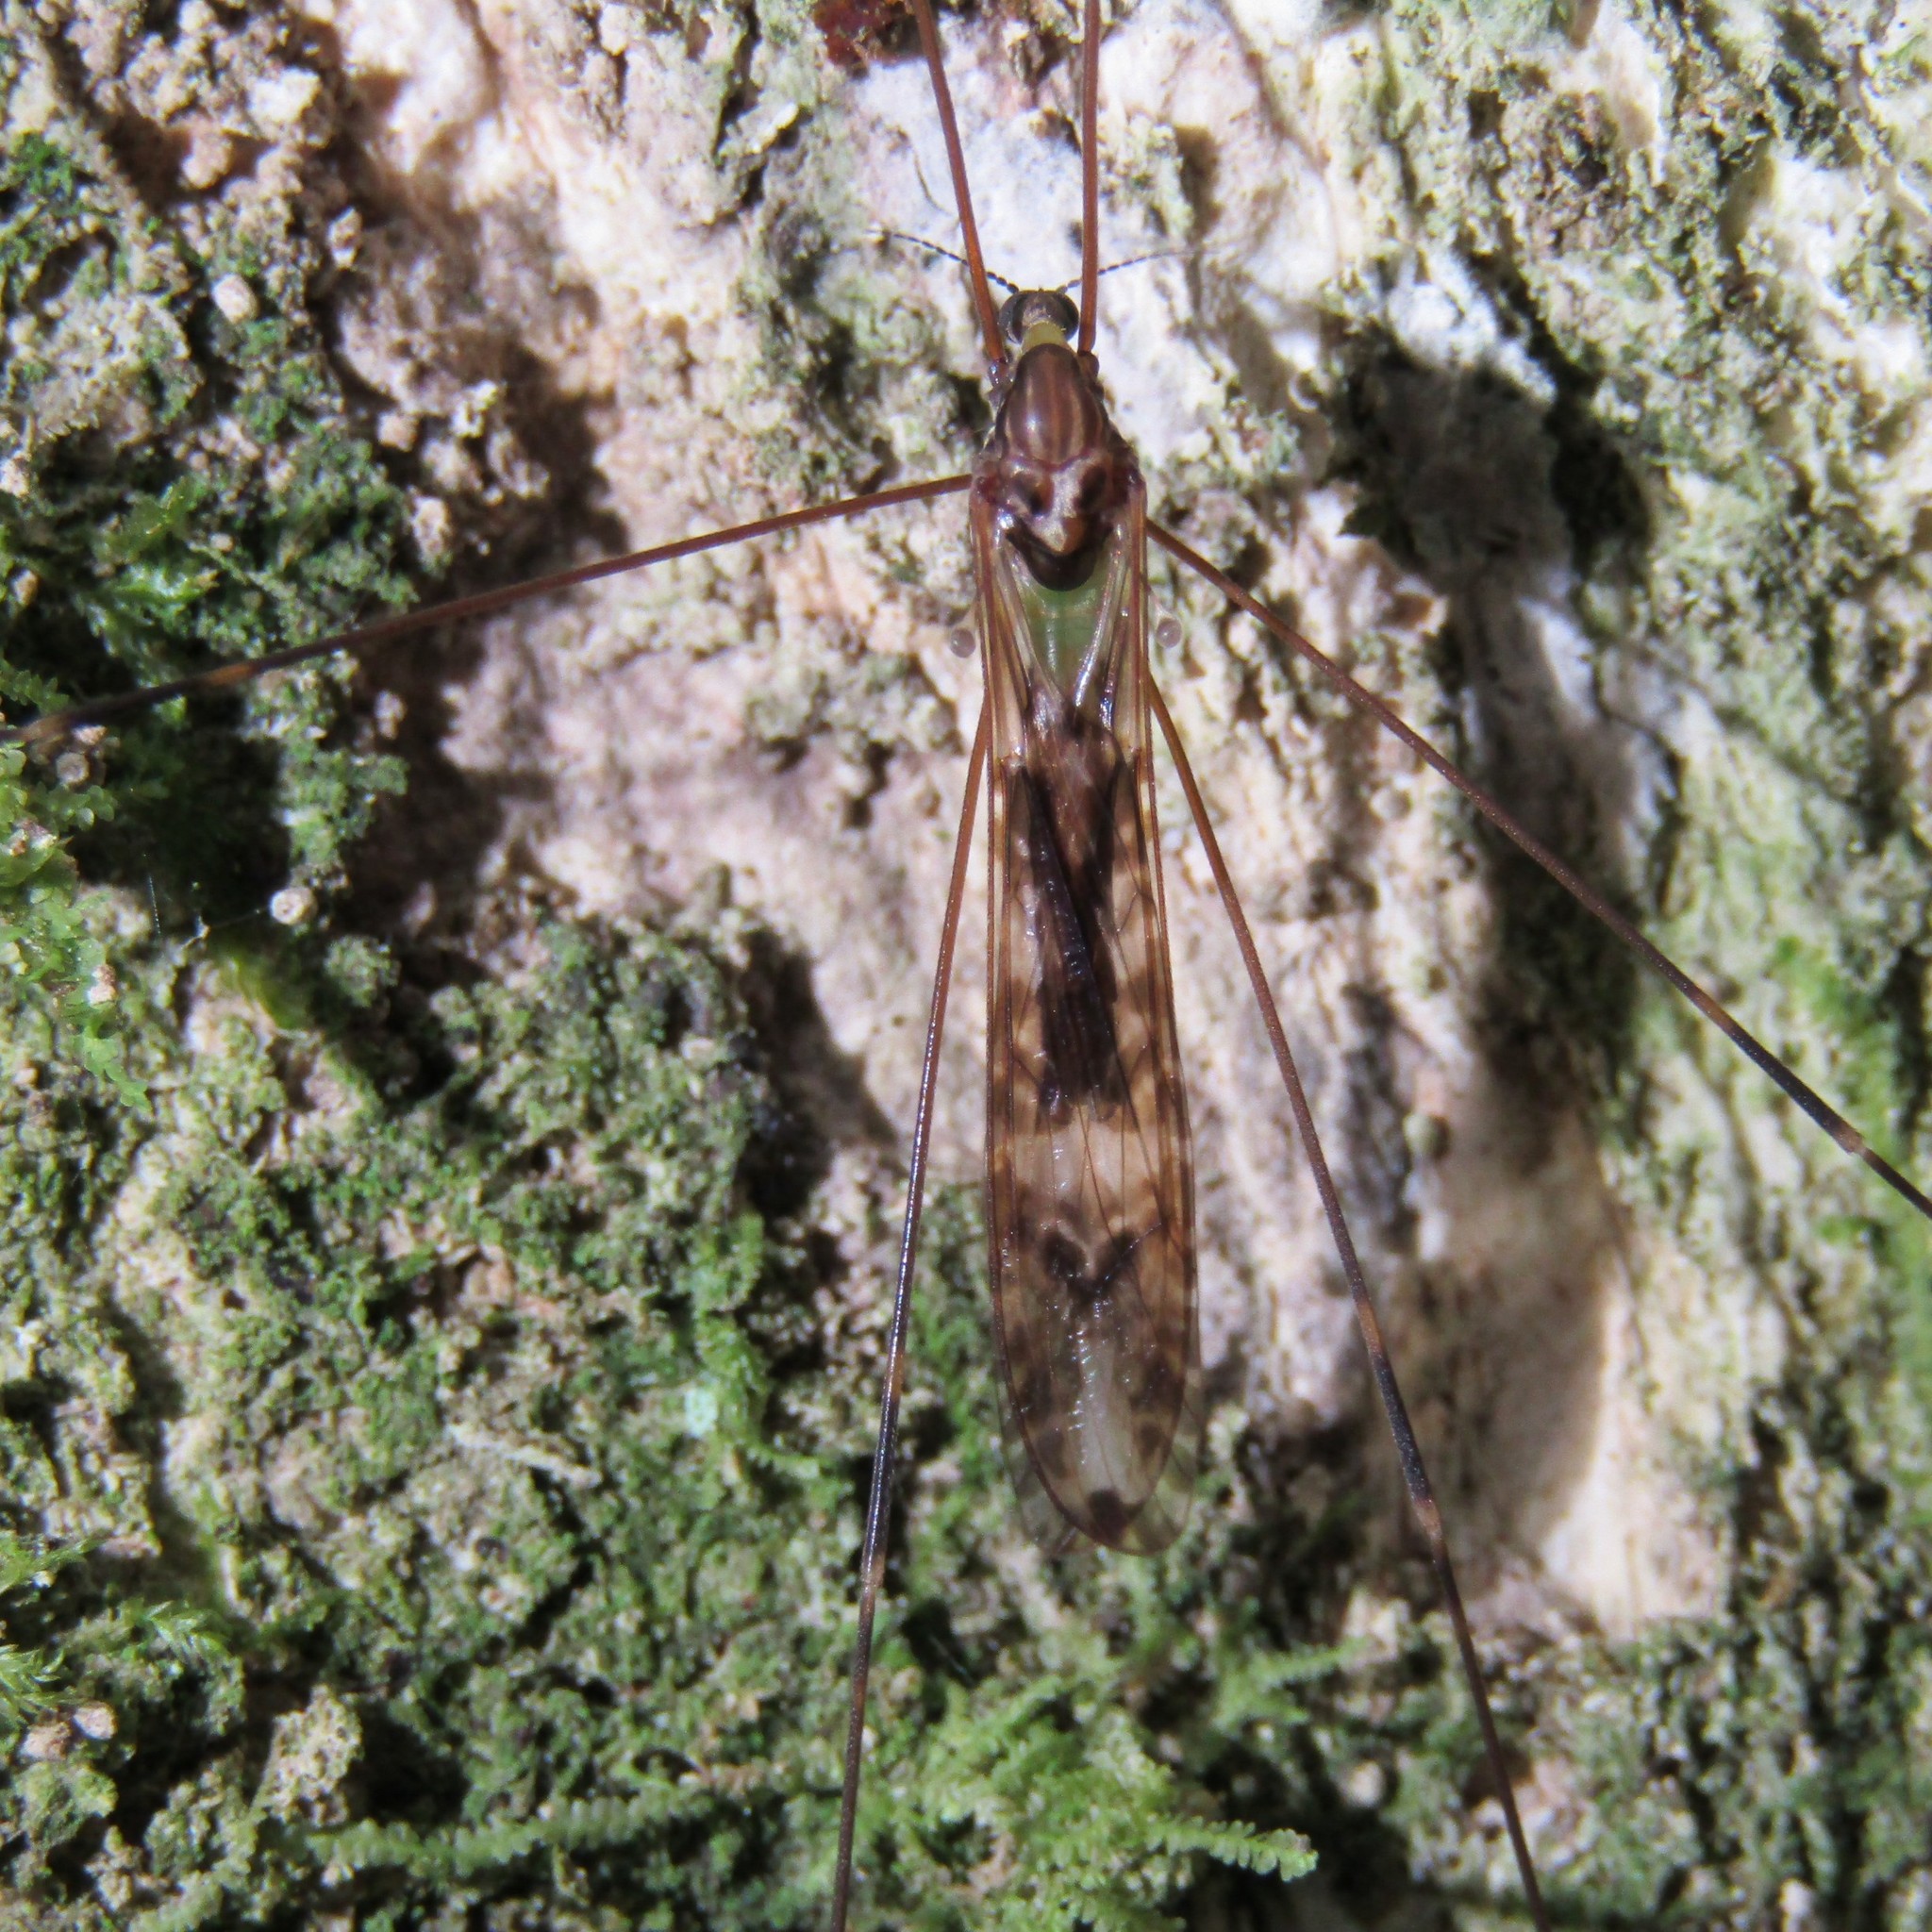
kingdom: Animalia
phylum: Arthropoda
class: Insecta
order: Diptera
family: Limoniidae
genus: Discobola
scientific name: Discobola dohrni
